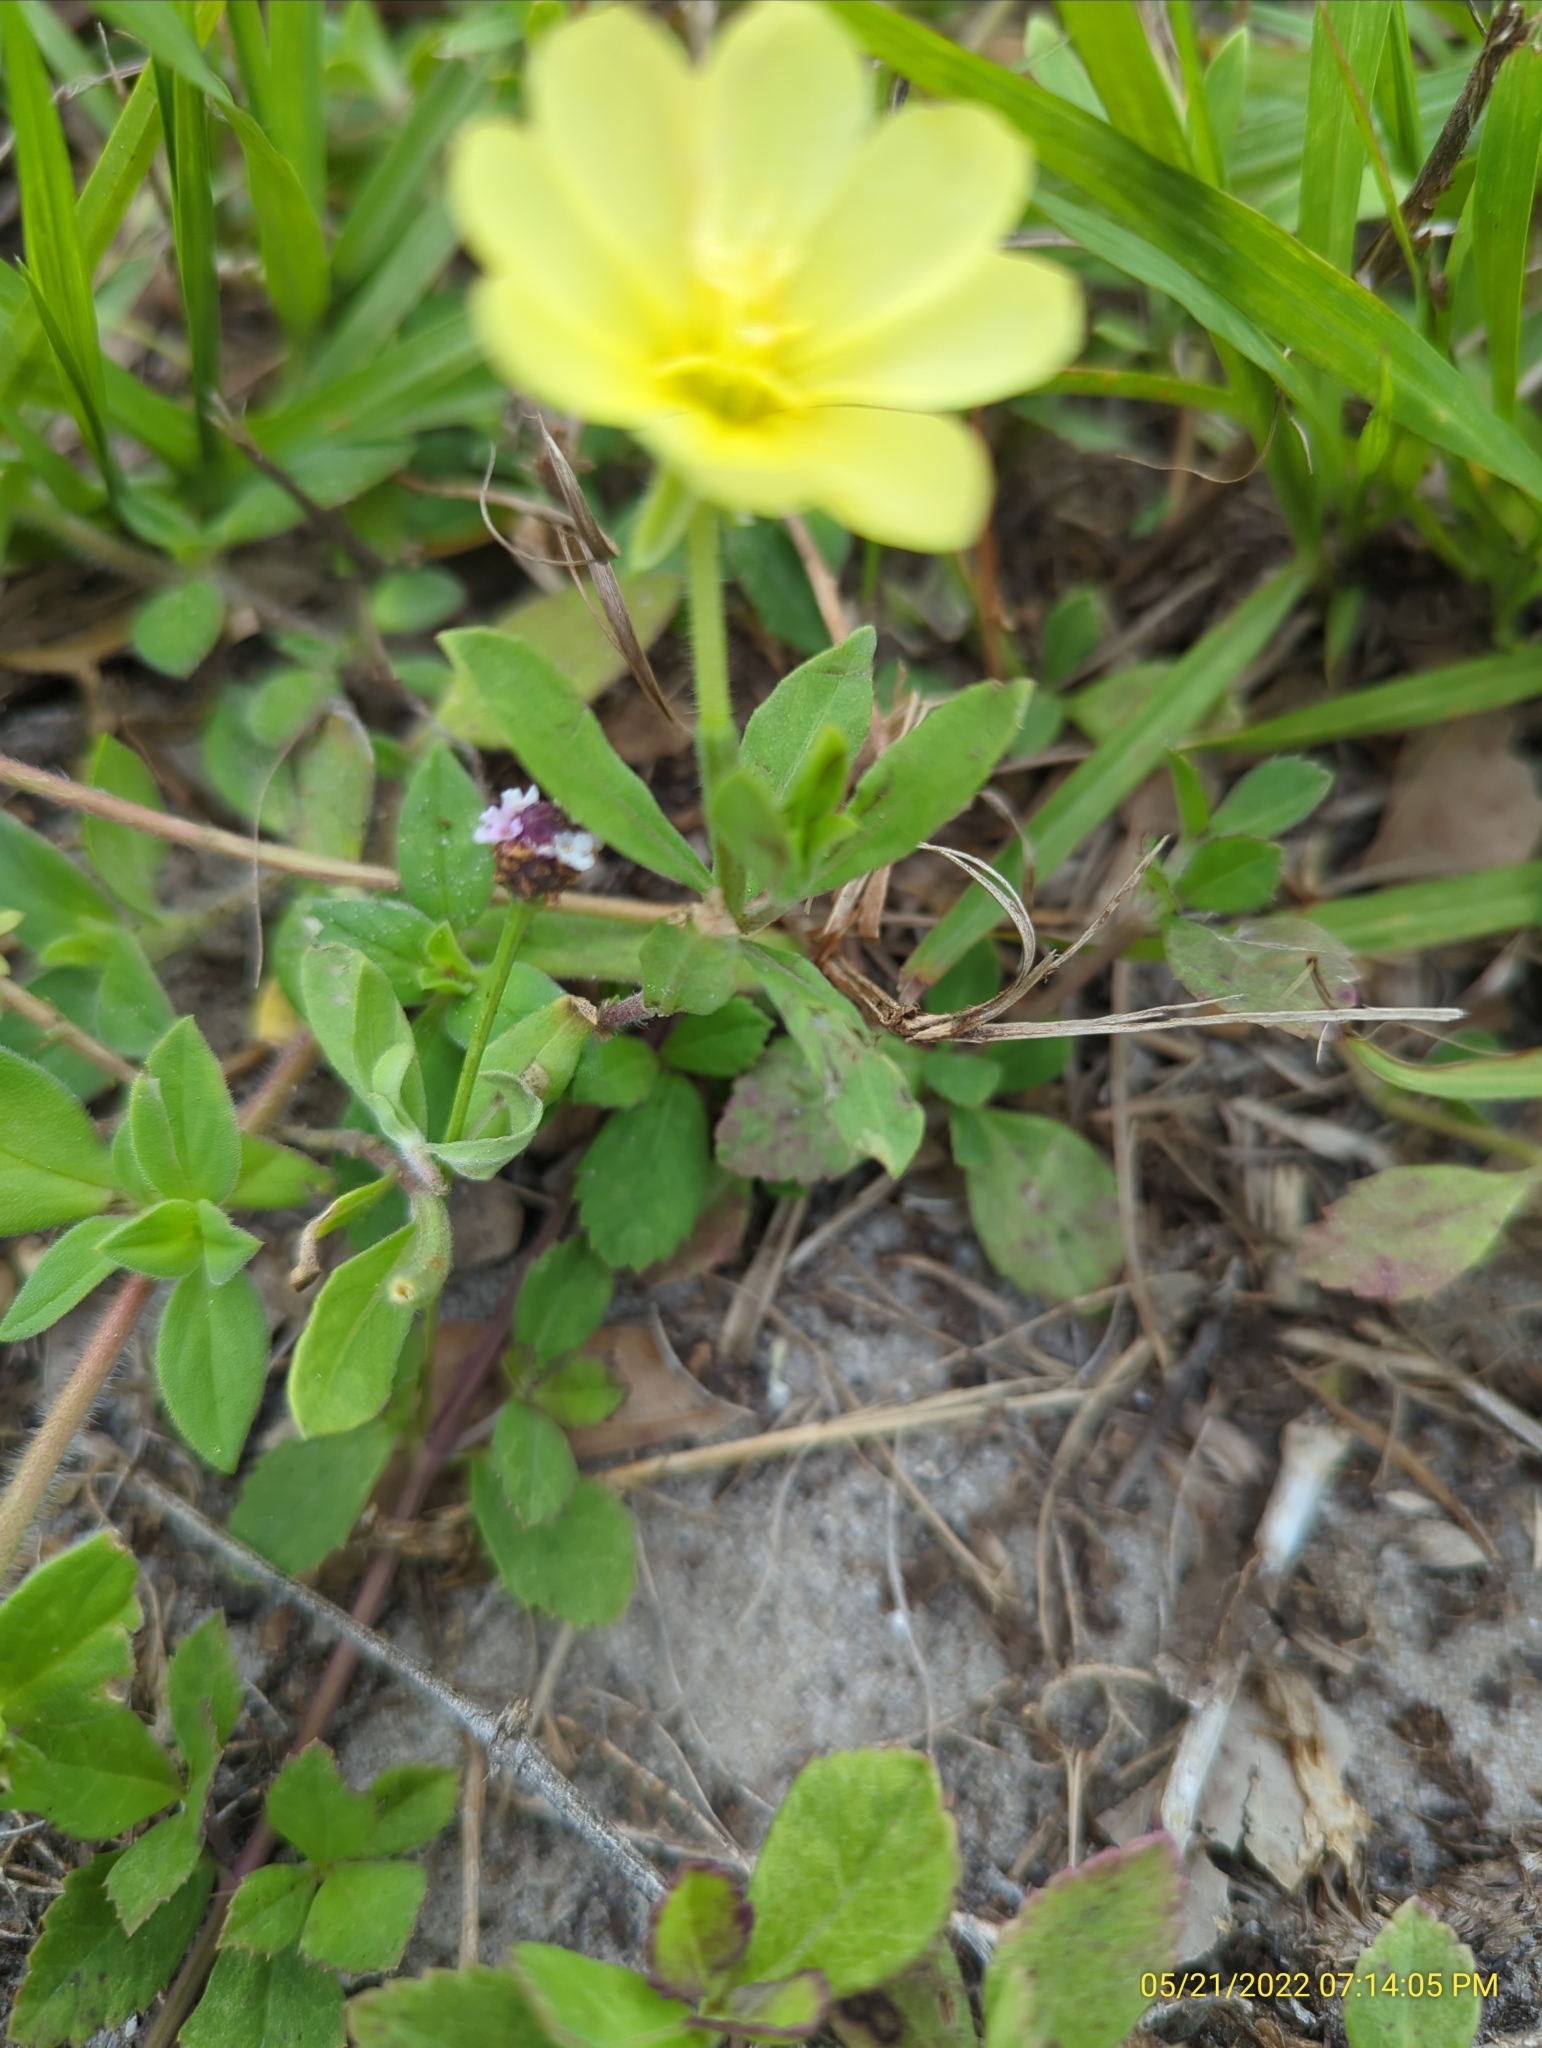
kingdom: Plantae
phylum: Tracheophyta
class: Magnoliopsida
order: Myrtales
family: Onagraceae
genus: Oenothera
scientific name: Oenothera laciniata
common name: Cut-leaved evening-primrose
